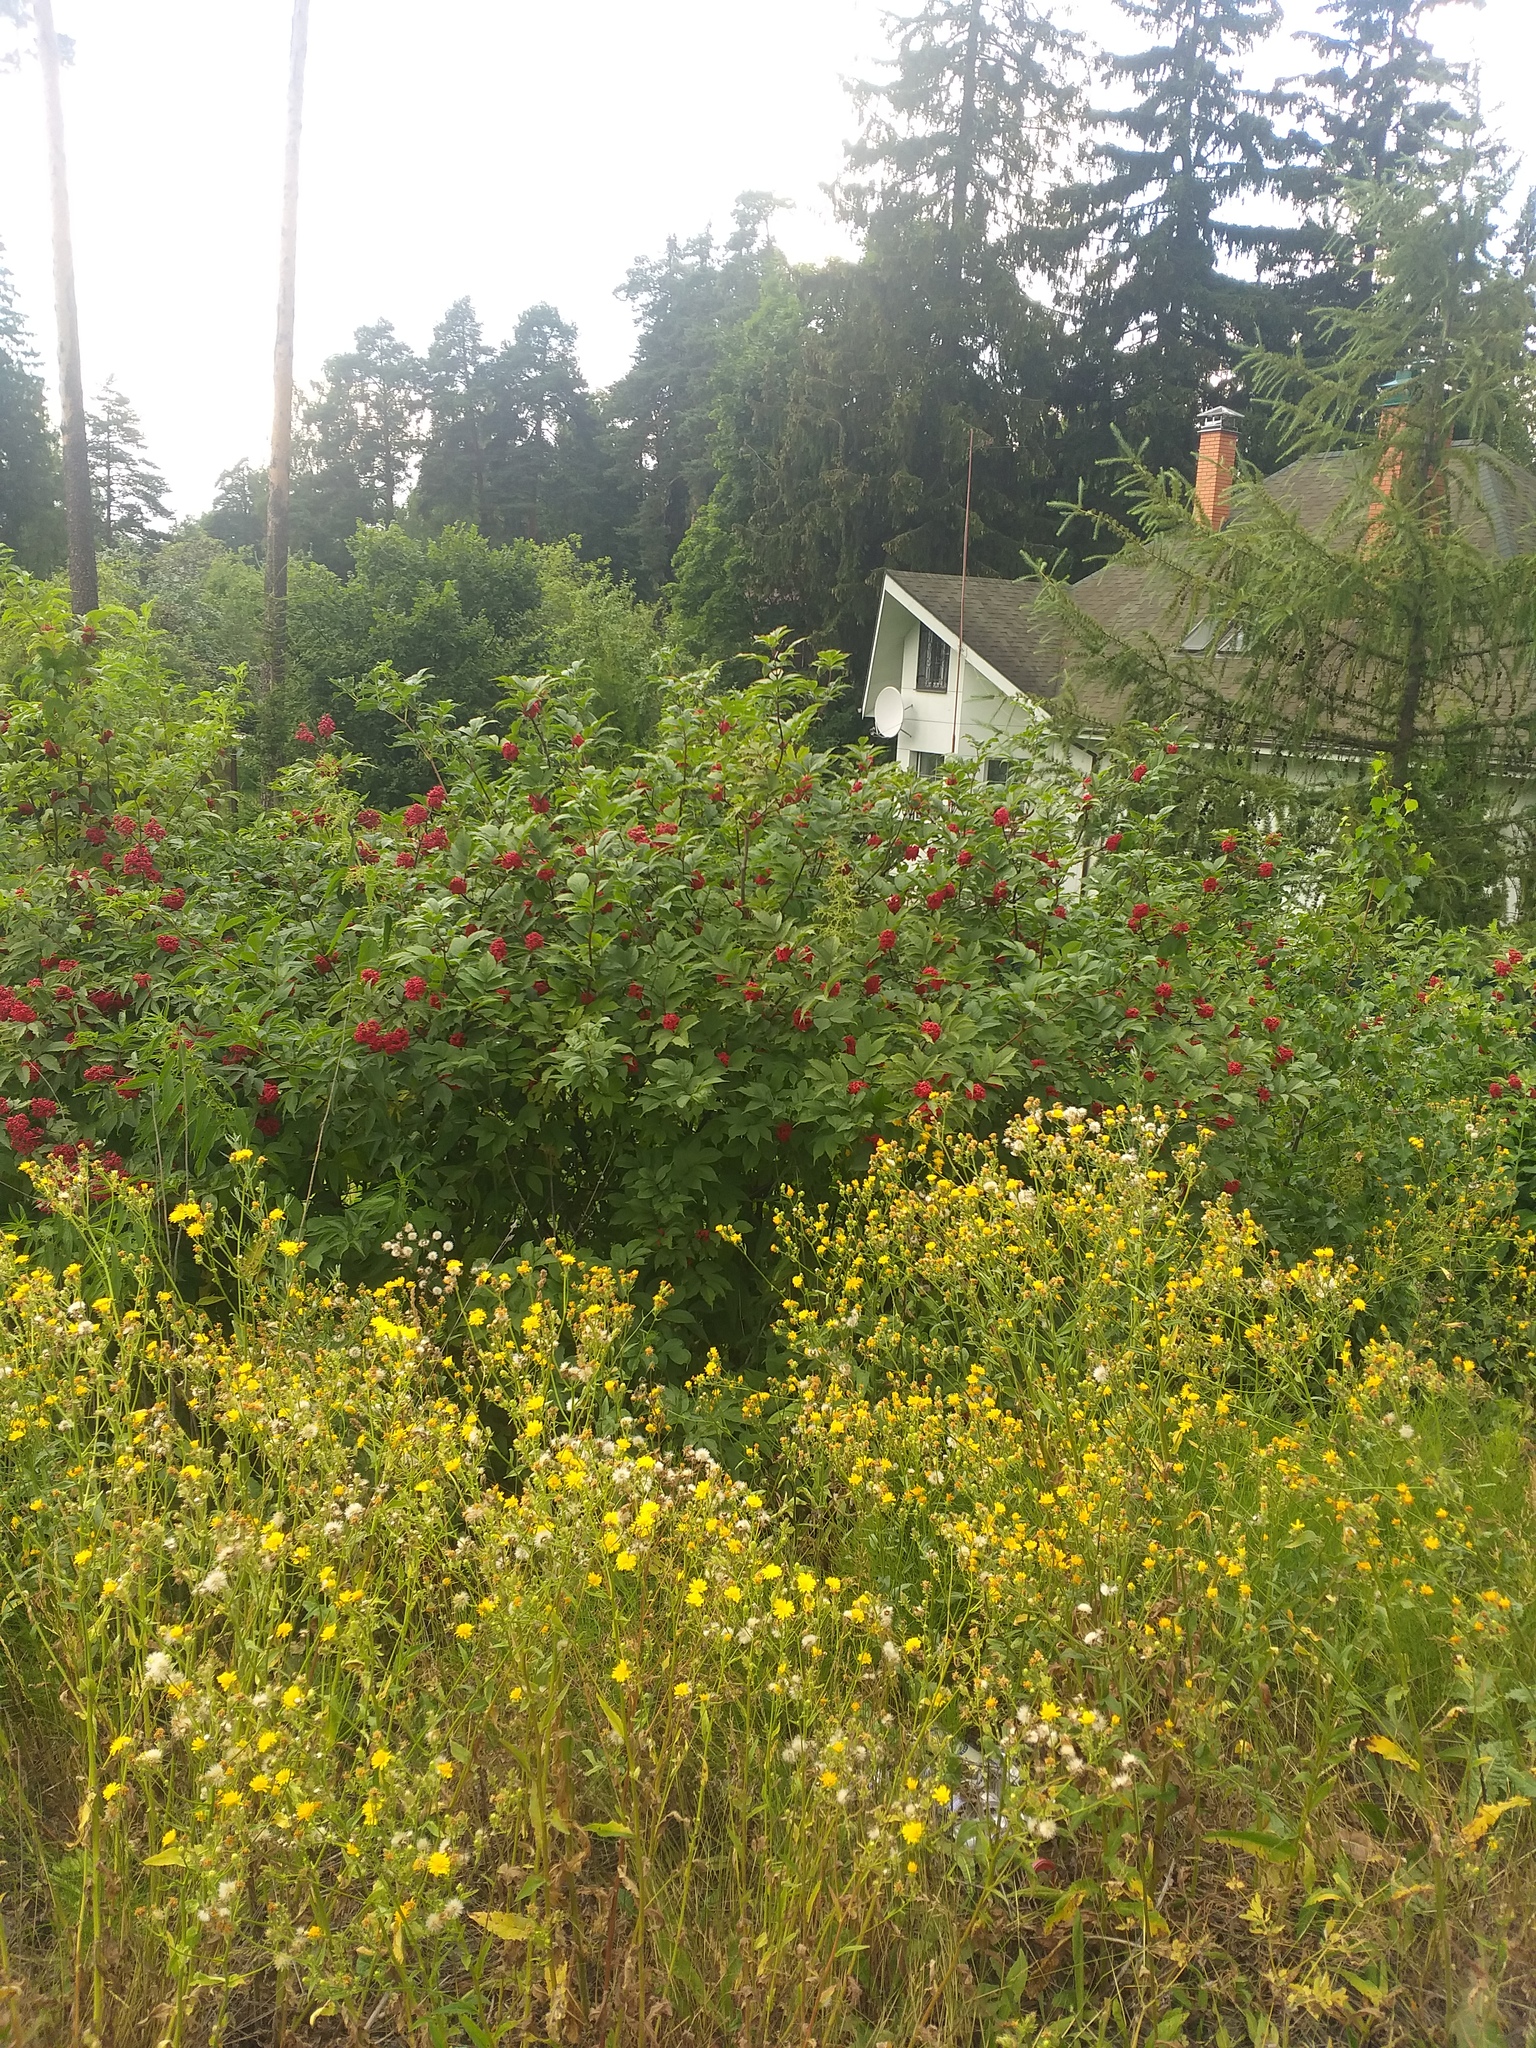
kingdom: Plantae
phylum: Tracheophyta
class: Magnoliopsida
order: Dipsacales
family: Viburnaceae
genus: Sambucus
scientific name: Sambucus racemosa
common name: Red-berried elder
